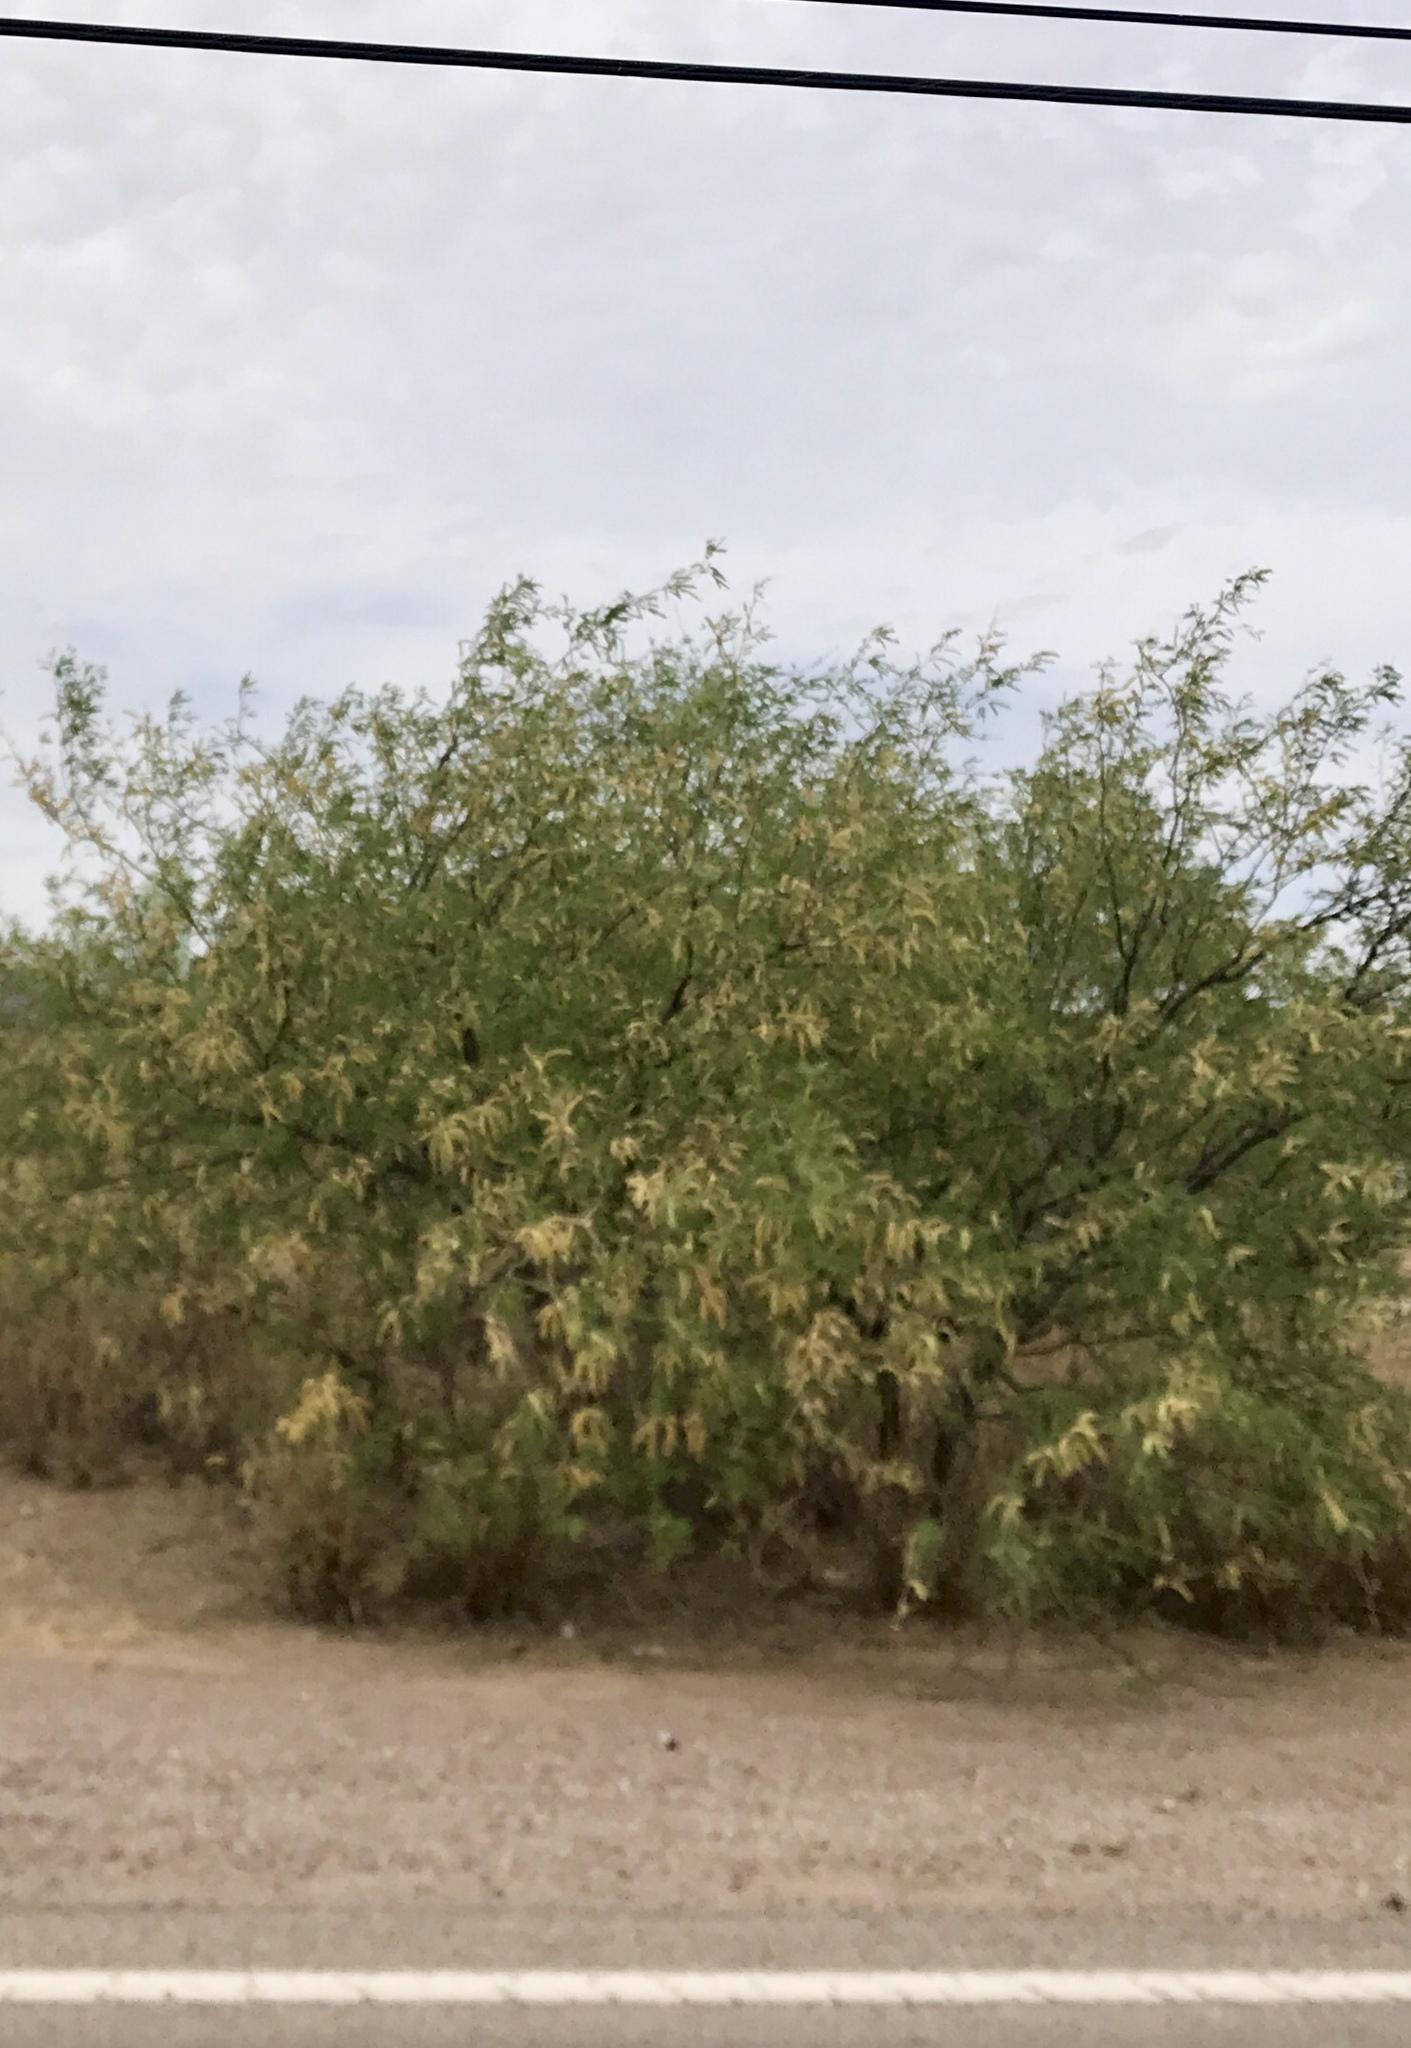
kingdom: Plantae
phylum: Tracheophyta
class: Magnoliopsida
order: Fabales
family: Fabaceae
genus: Prosopis
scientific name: Prosopis velutina
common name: Velvet mesquite
